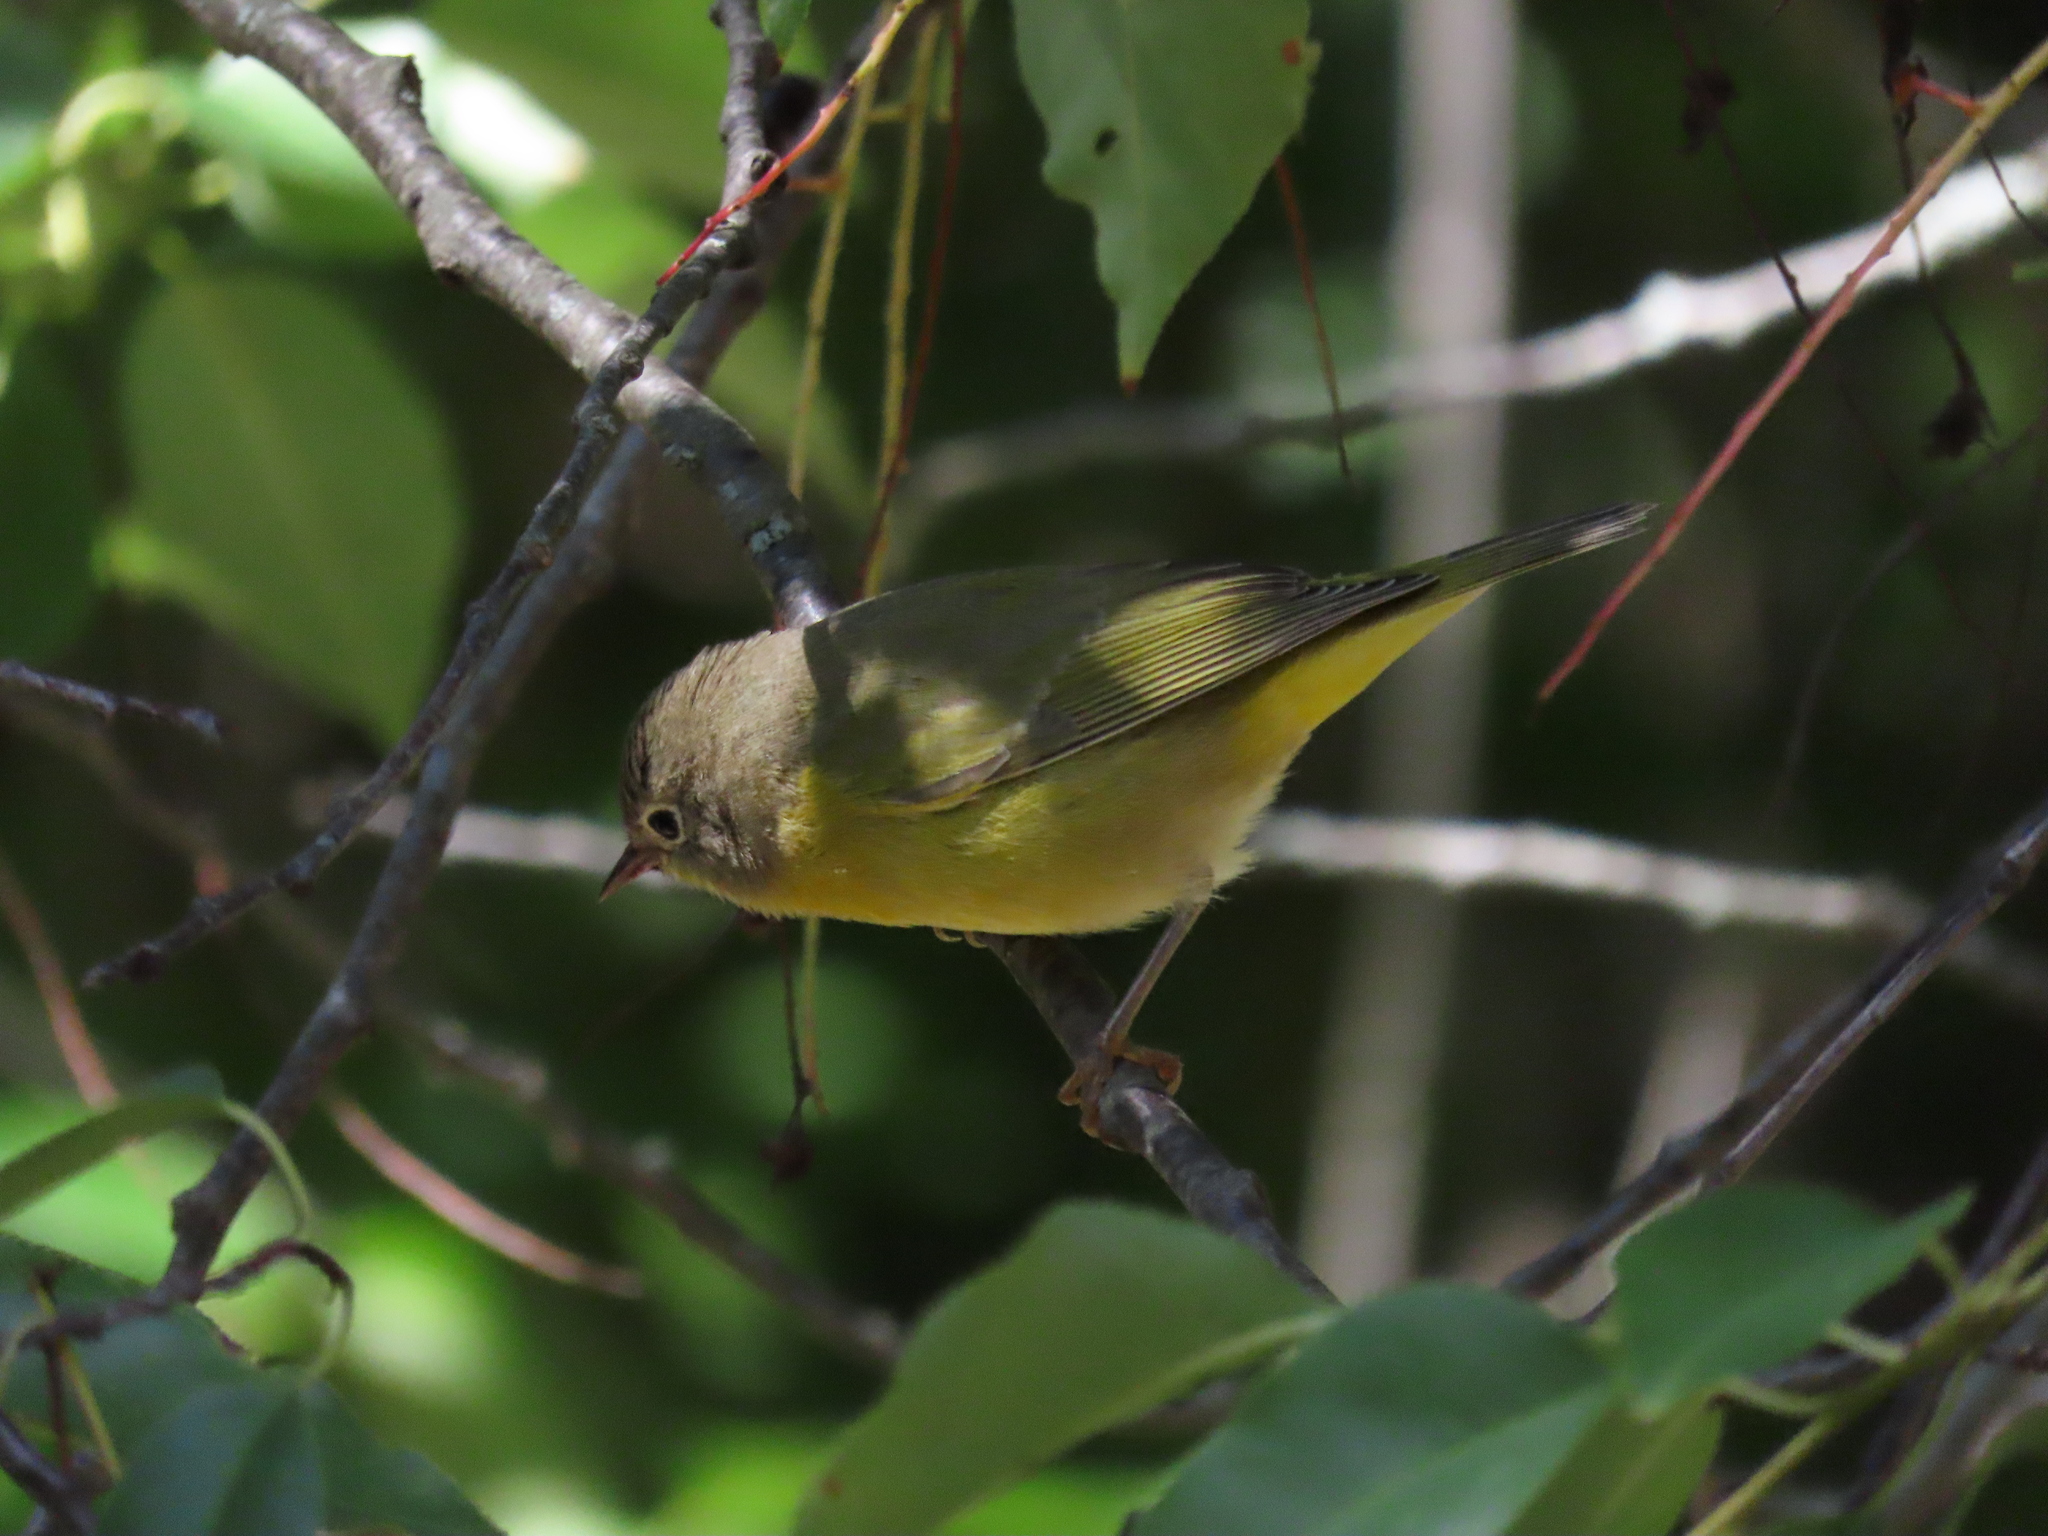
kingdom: Animalia
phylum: Chordata
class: Aves
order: Passeriformes
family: Parulidae
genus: Leiothlypis
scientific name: Leiothlypis ruficapilla
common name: Nashville warbler
